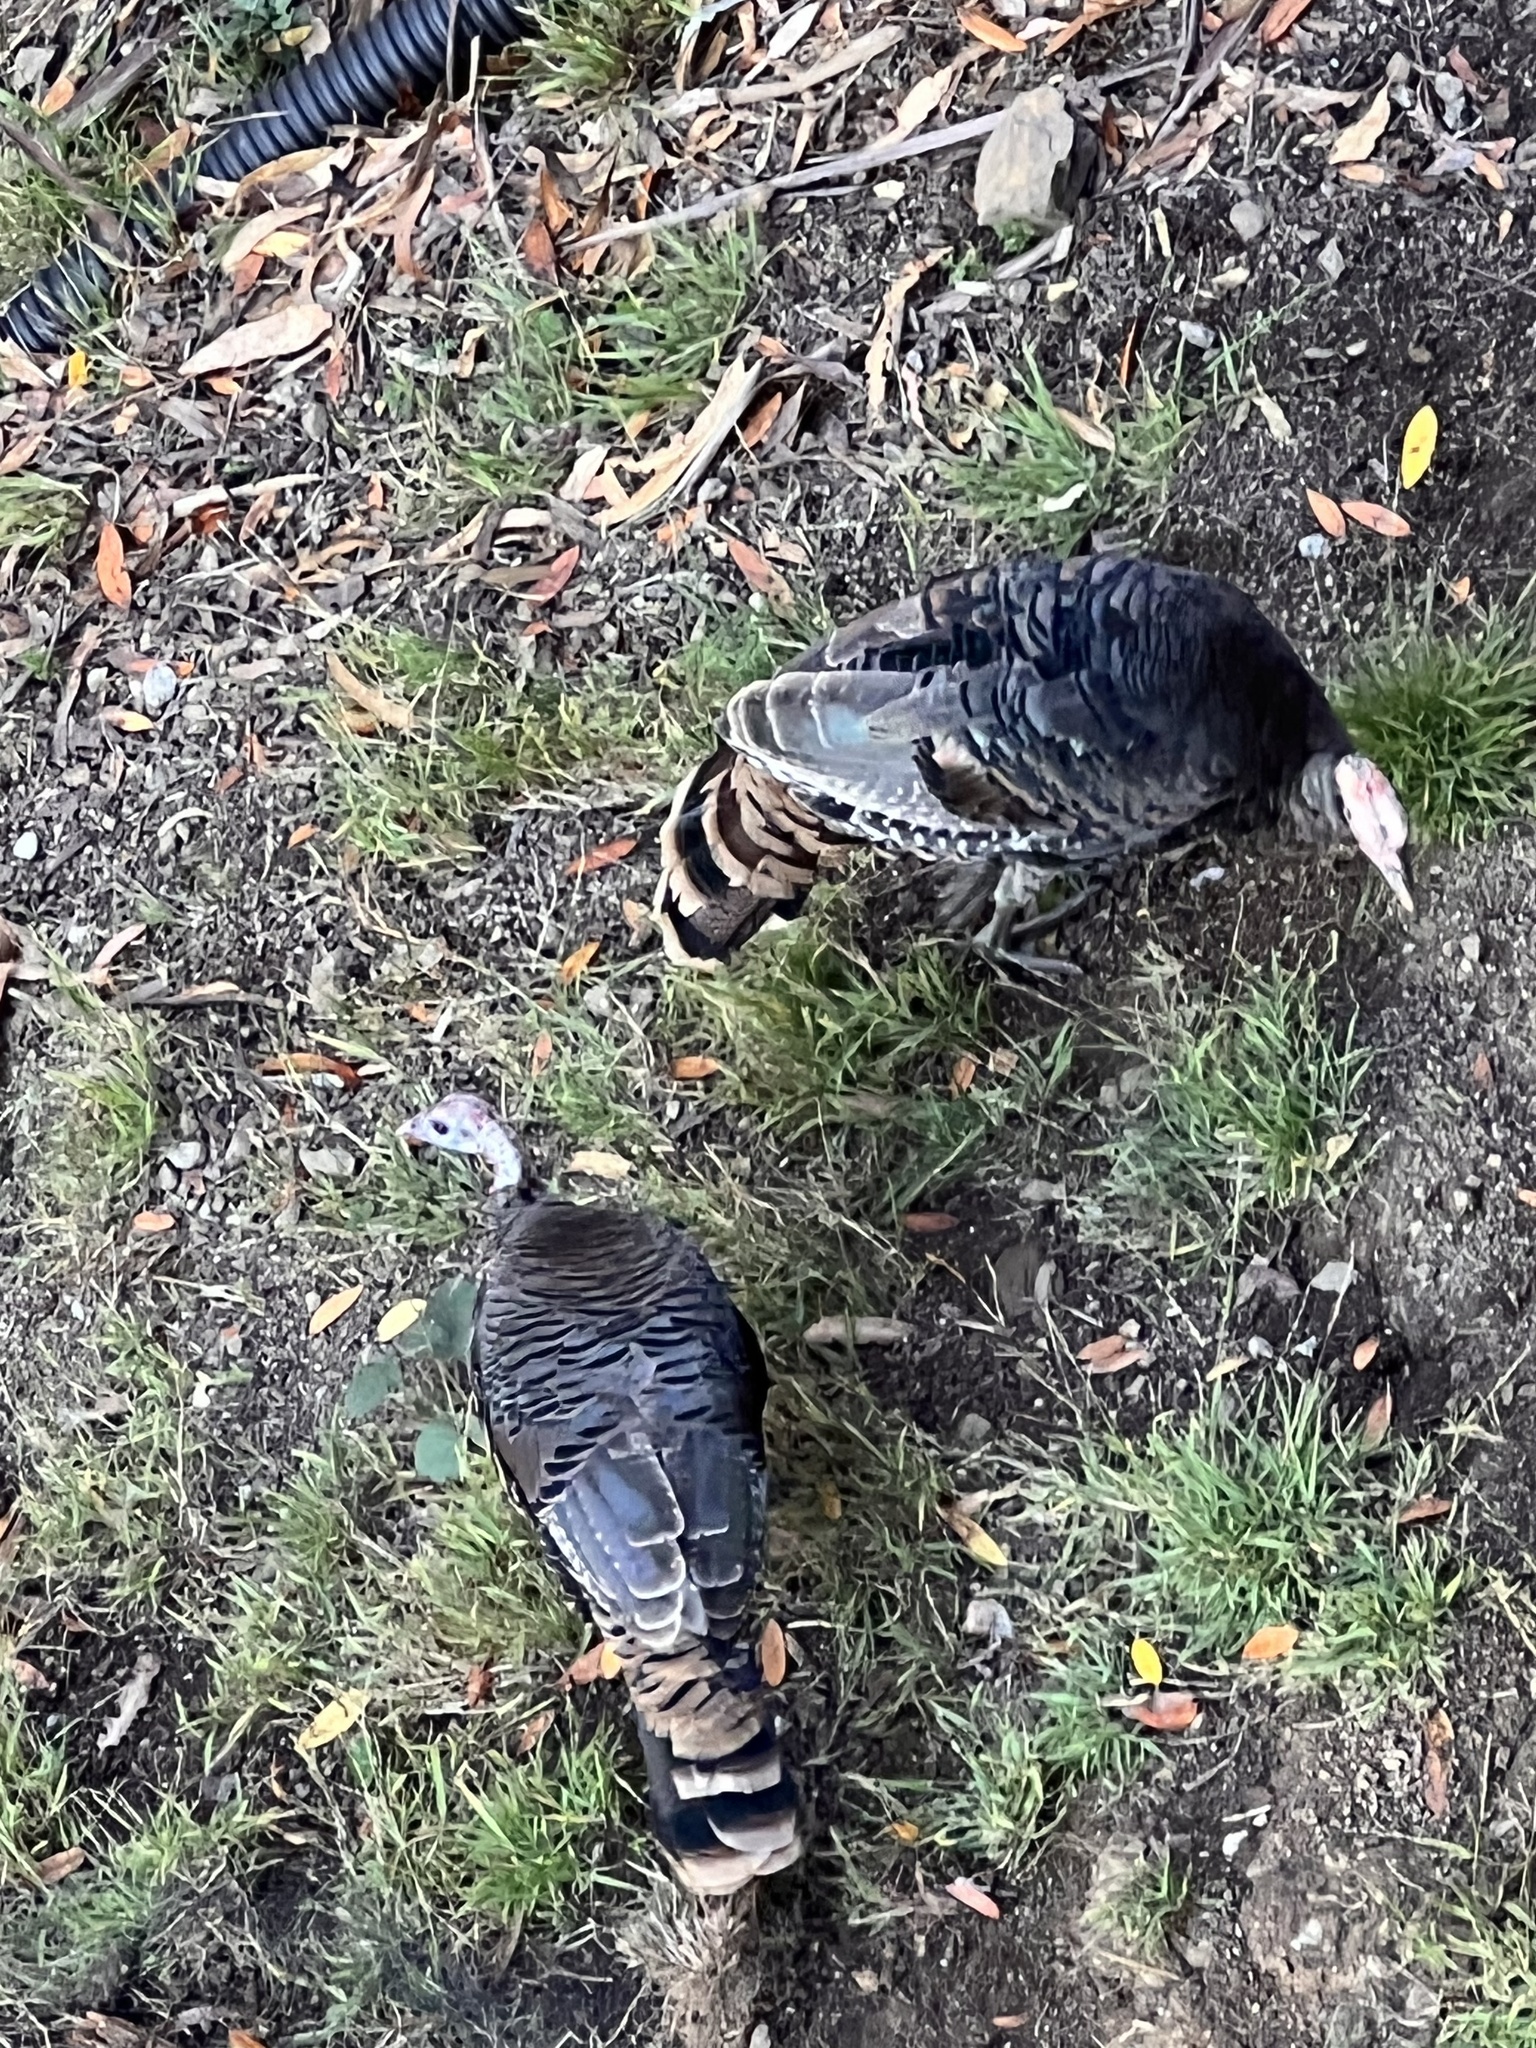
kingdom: Animalia
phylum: Chordata
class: Aves
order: Galliformes
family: Phasianidae
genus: Meleagris
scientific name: Meleagris gallopavo
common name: Wild turkey
